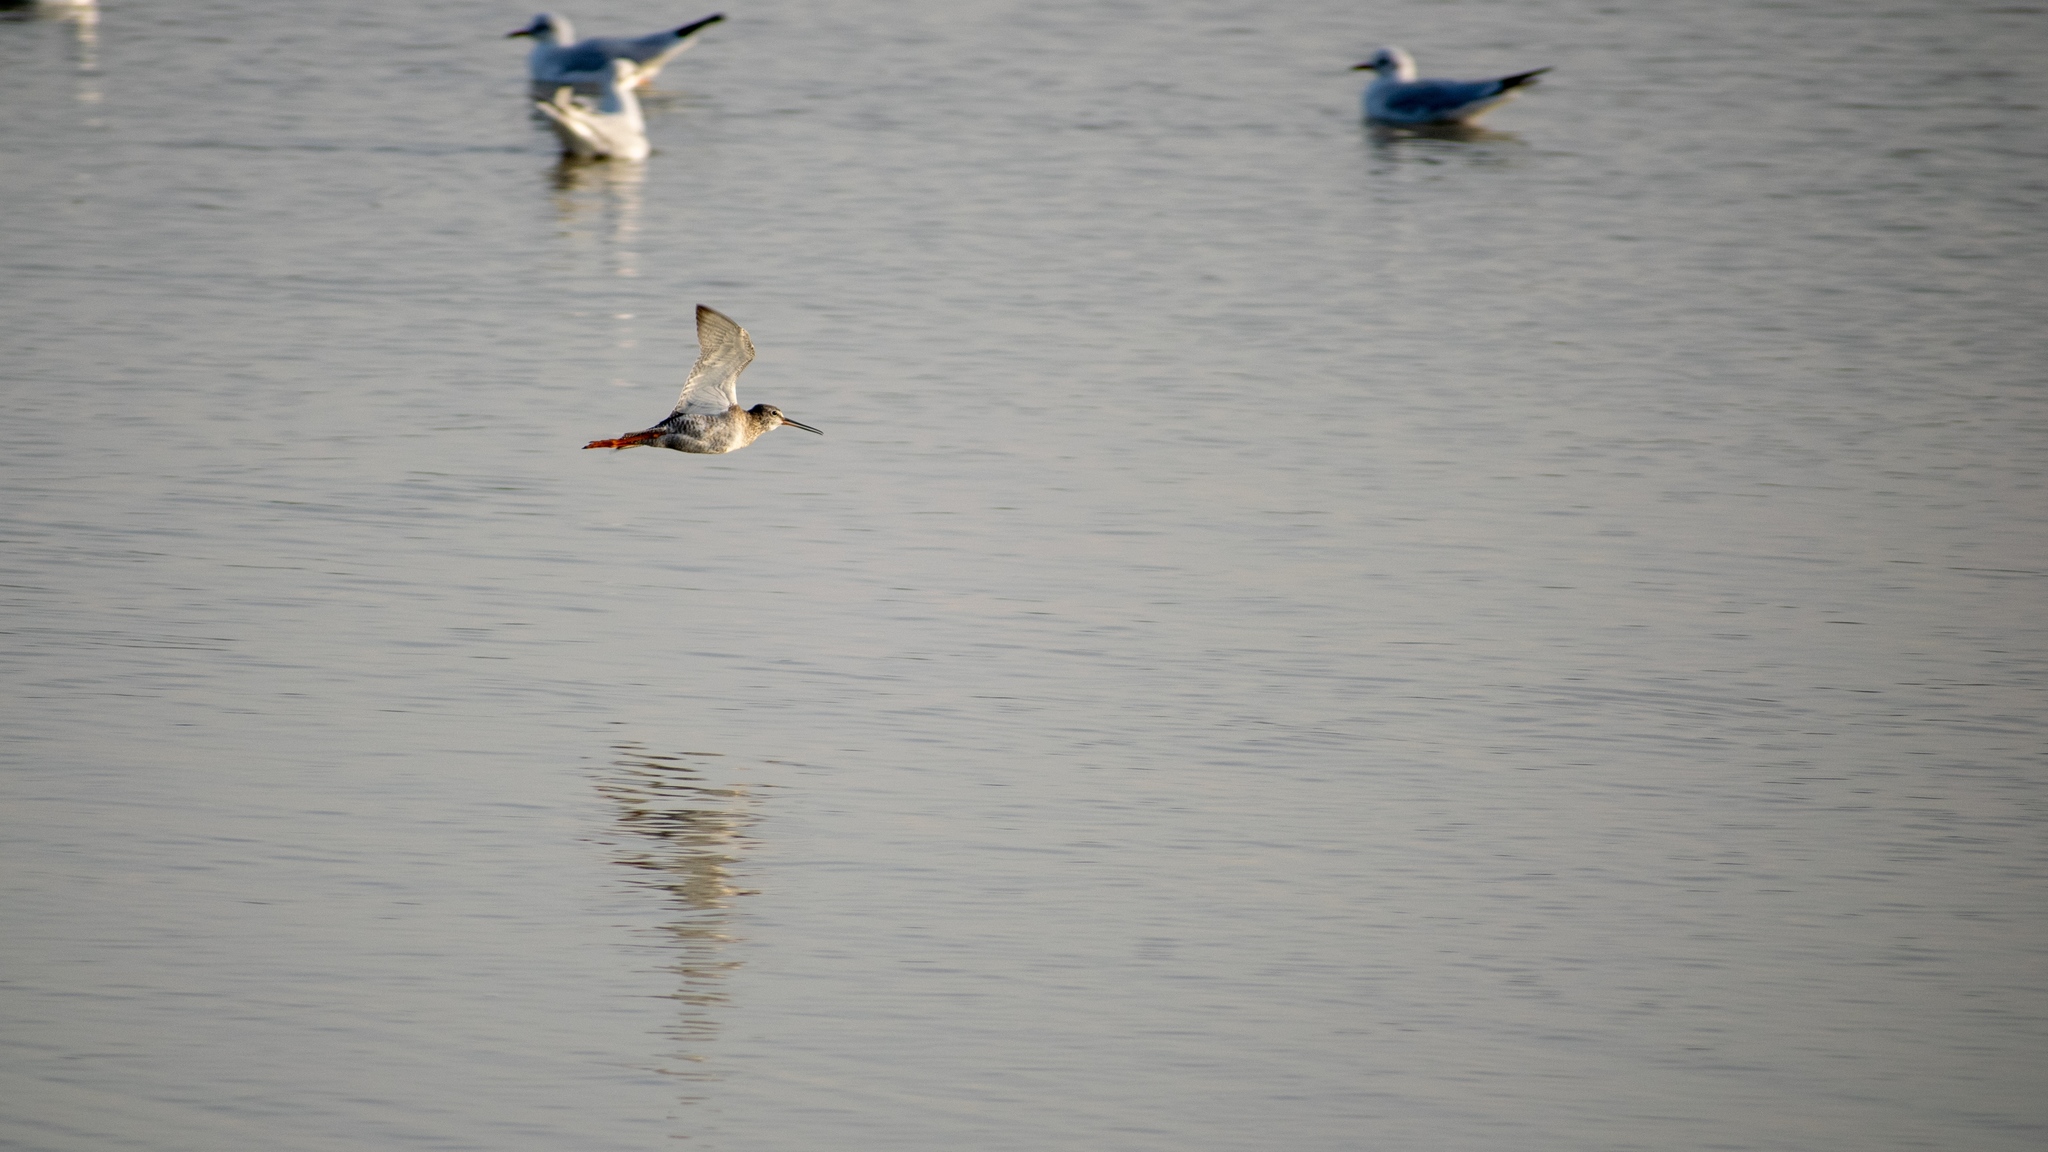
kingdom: Animalia
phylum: Chordata
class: Aves
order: Charadriiformes
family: Scolopacidae
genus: Tringa
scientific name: Tringa erythropus
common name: Spotted redshank
